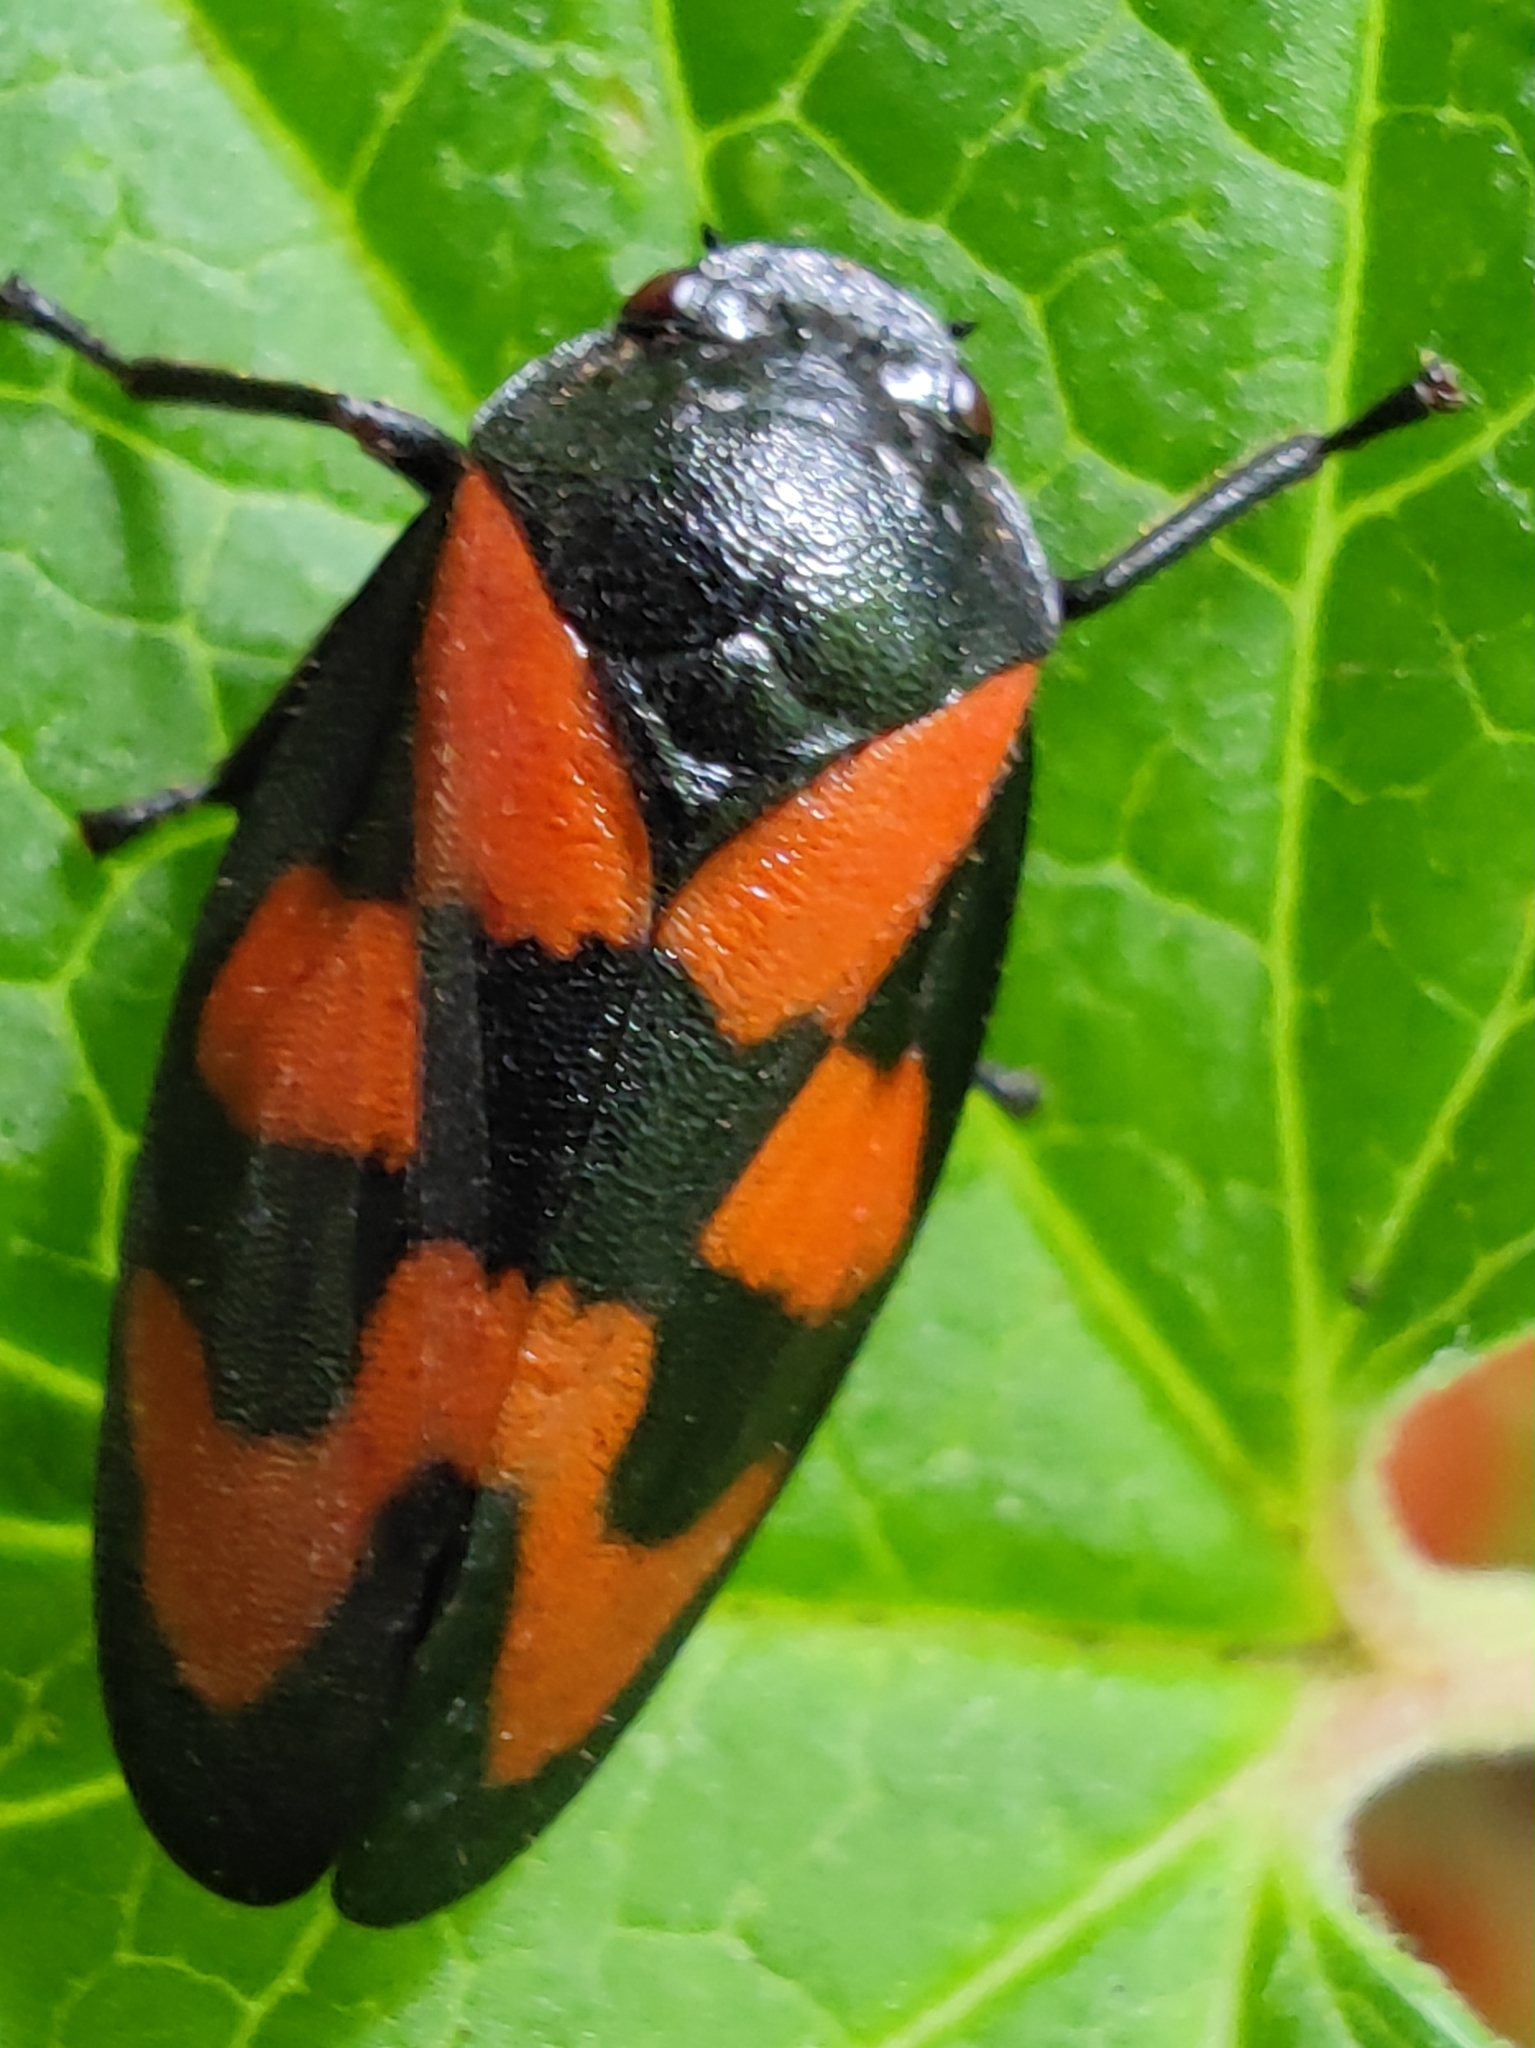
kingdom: Animalia
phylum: Arthropoda
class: Insecta
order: Hemiptera
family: Cercopidae
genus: Cercopis
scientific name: Cercopis vulnerata
